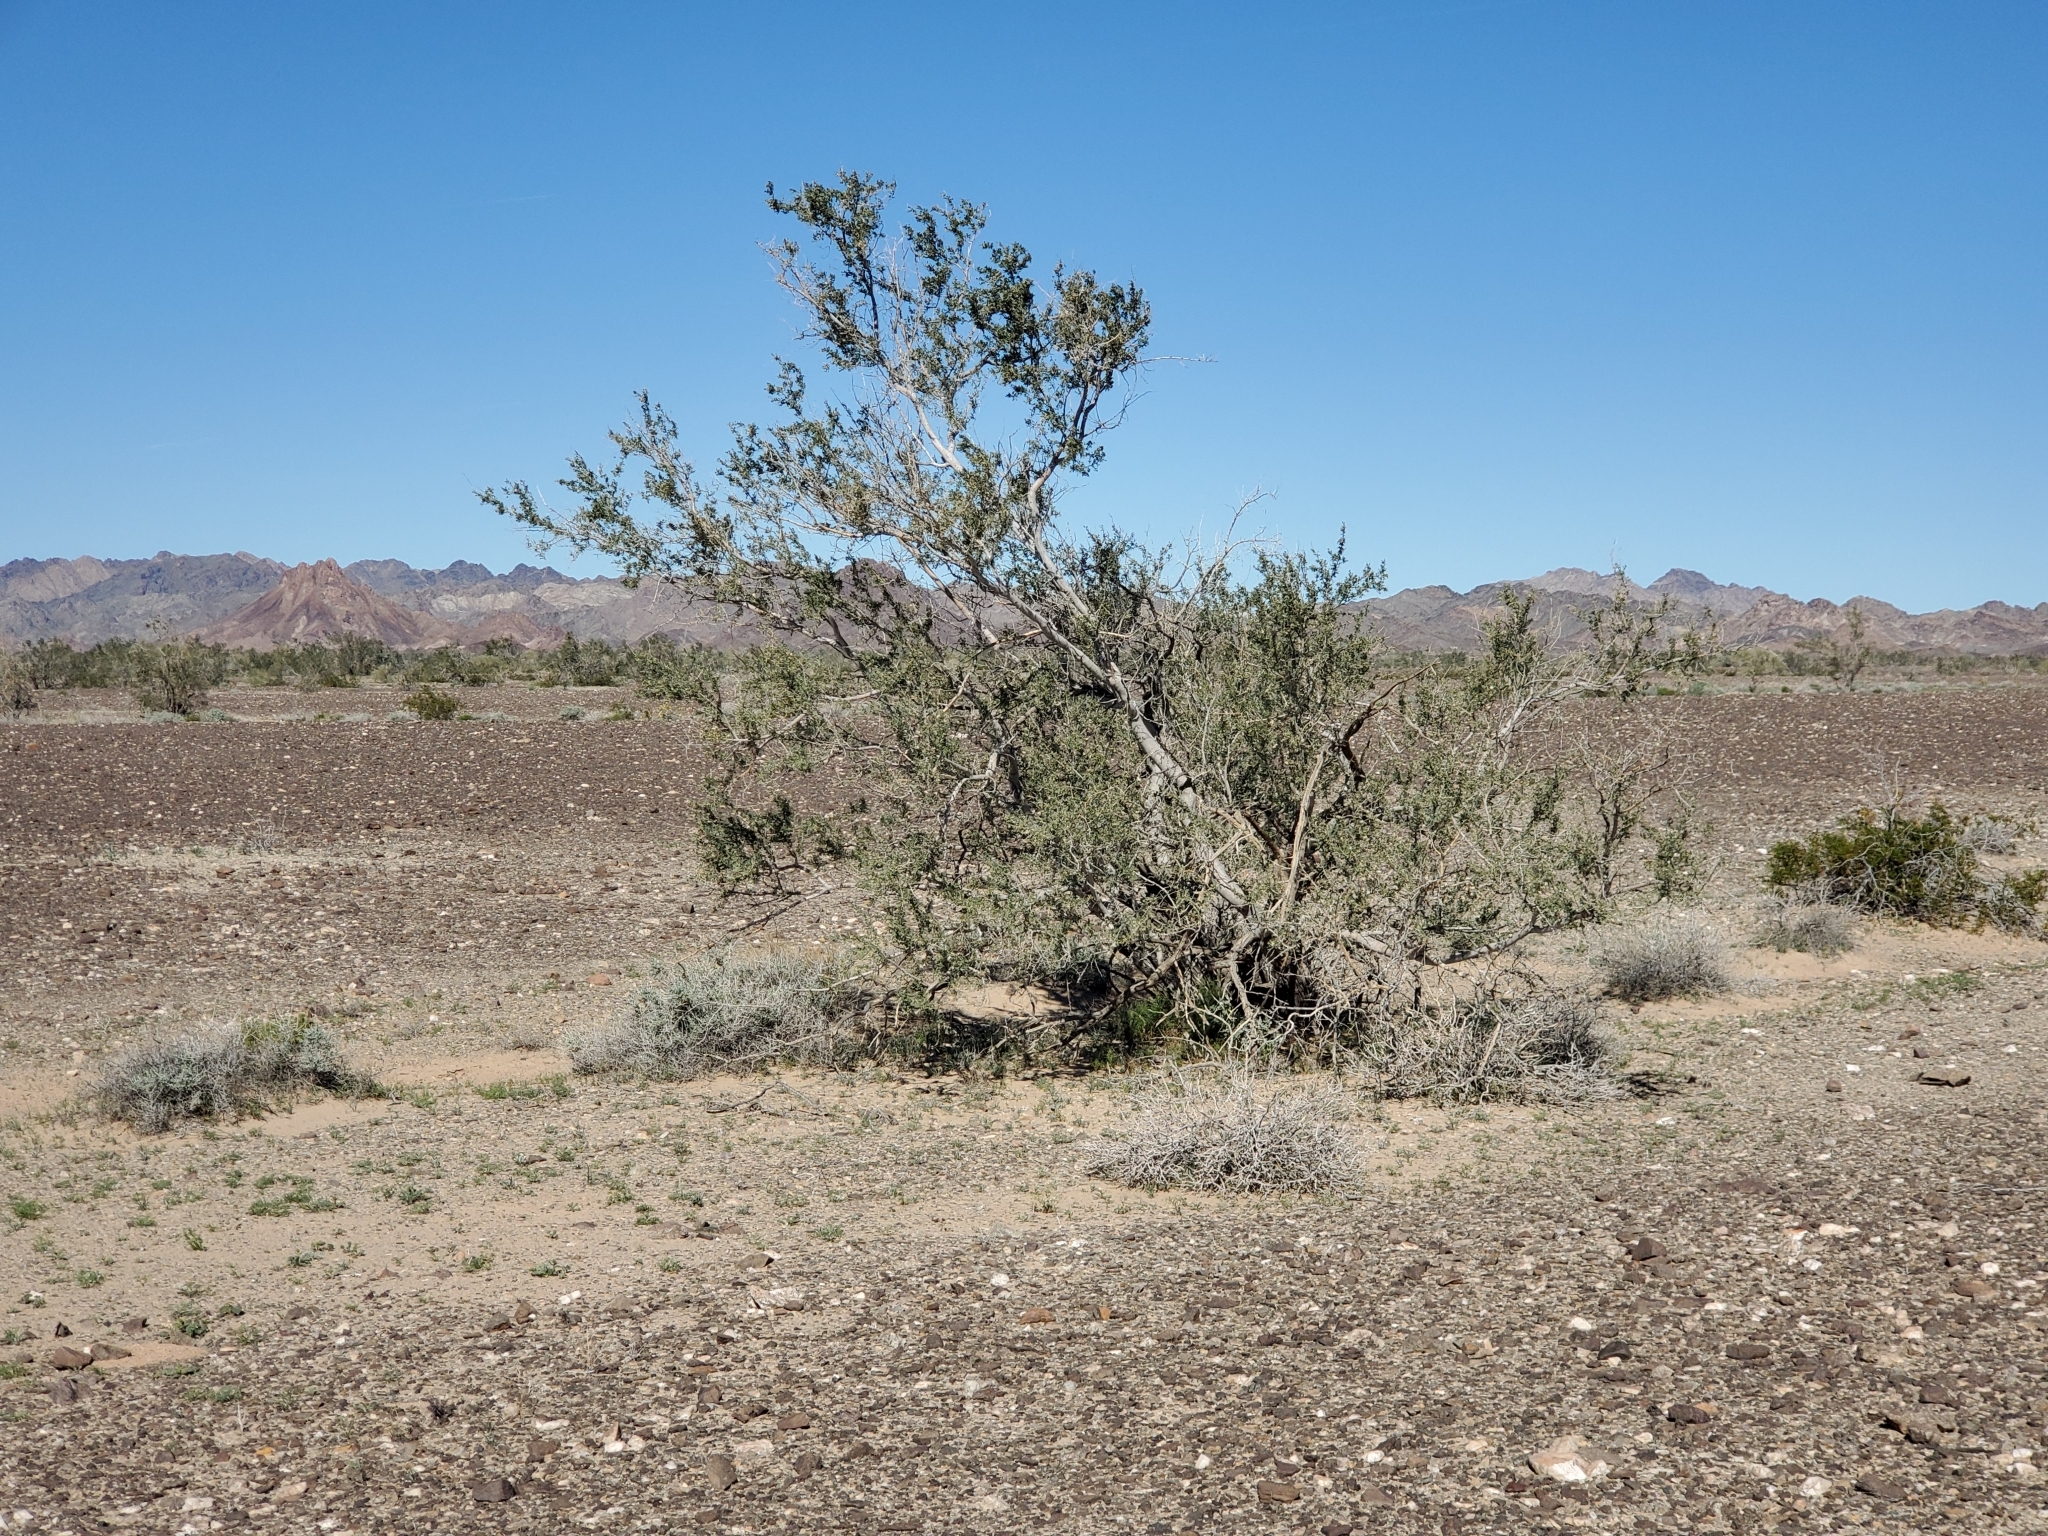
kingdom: Plantae
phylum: Tracheophyta
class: Magnoliopsida
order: Fabales
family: Fabaceae
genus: Olneya
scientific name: Olneya tesota
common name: Desert ironwood
